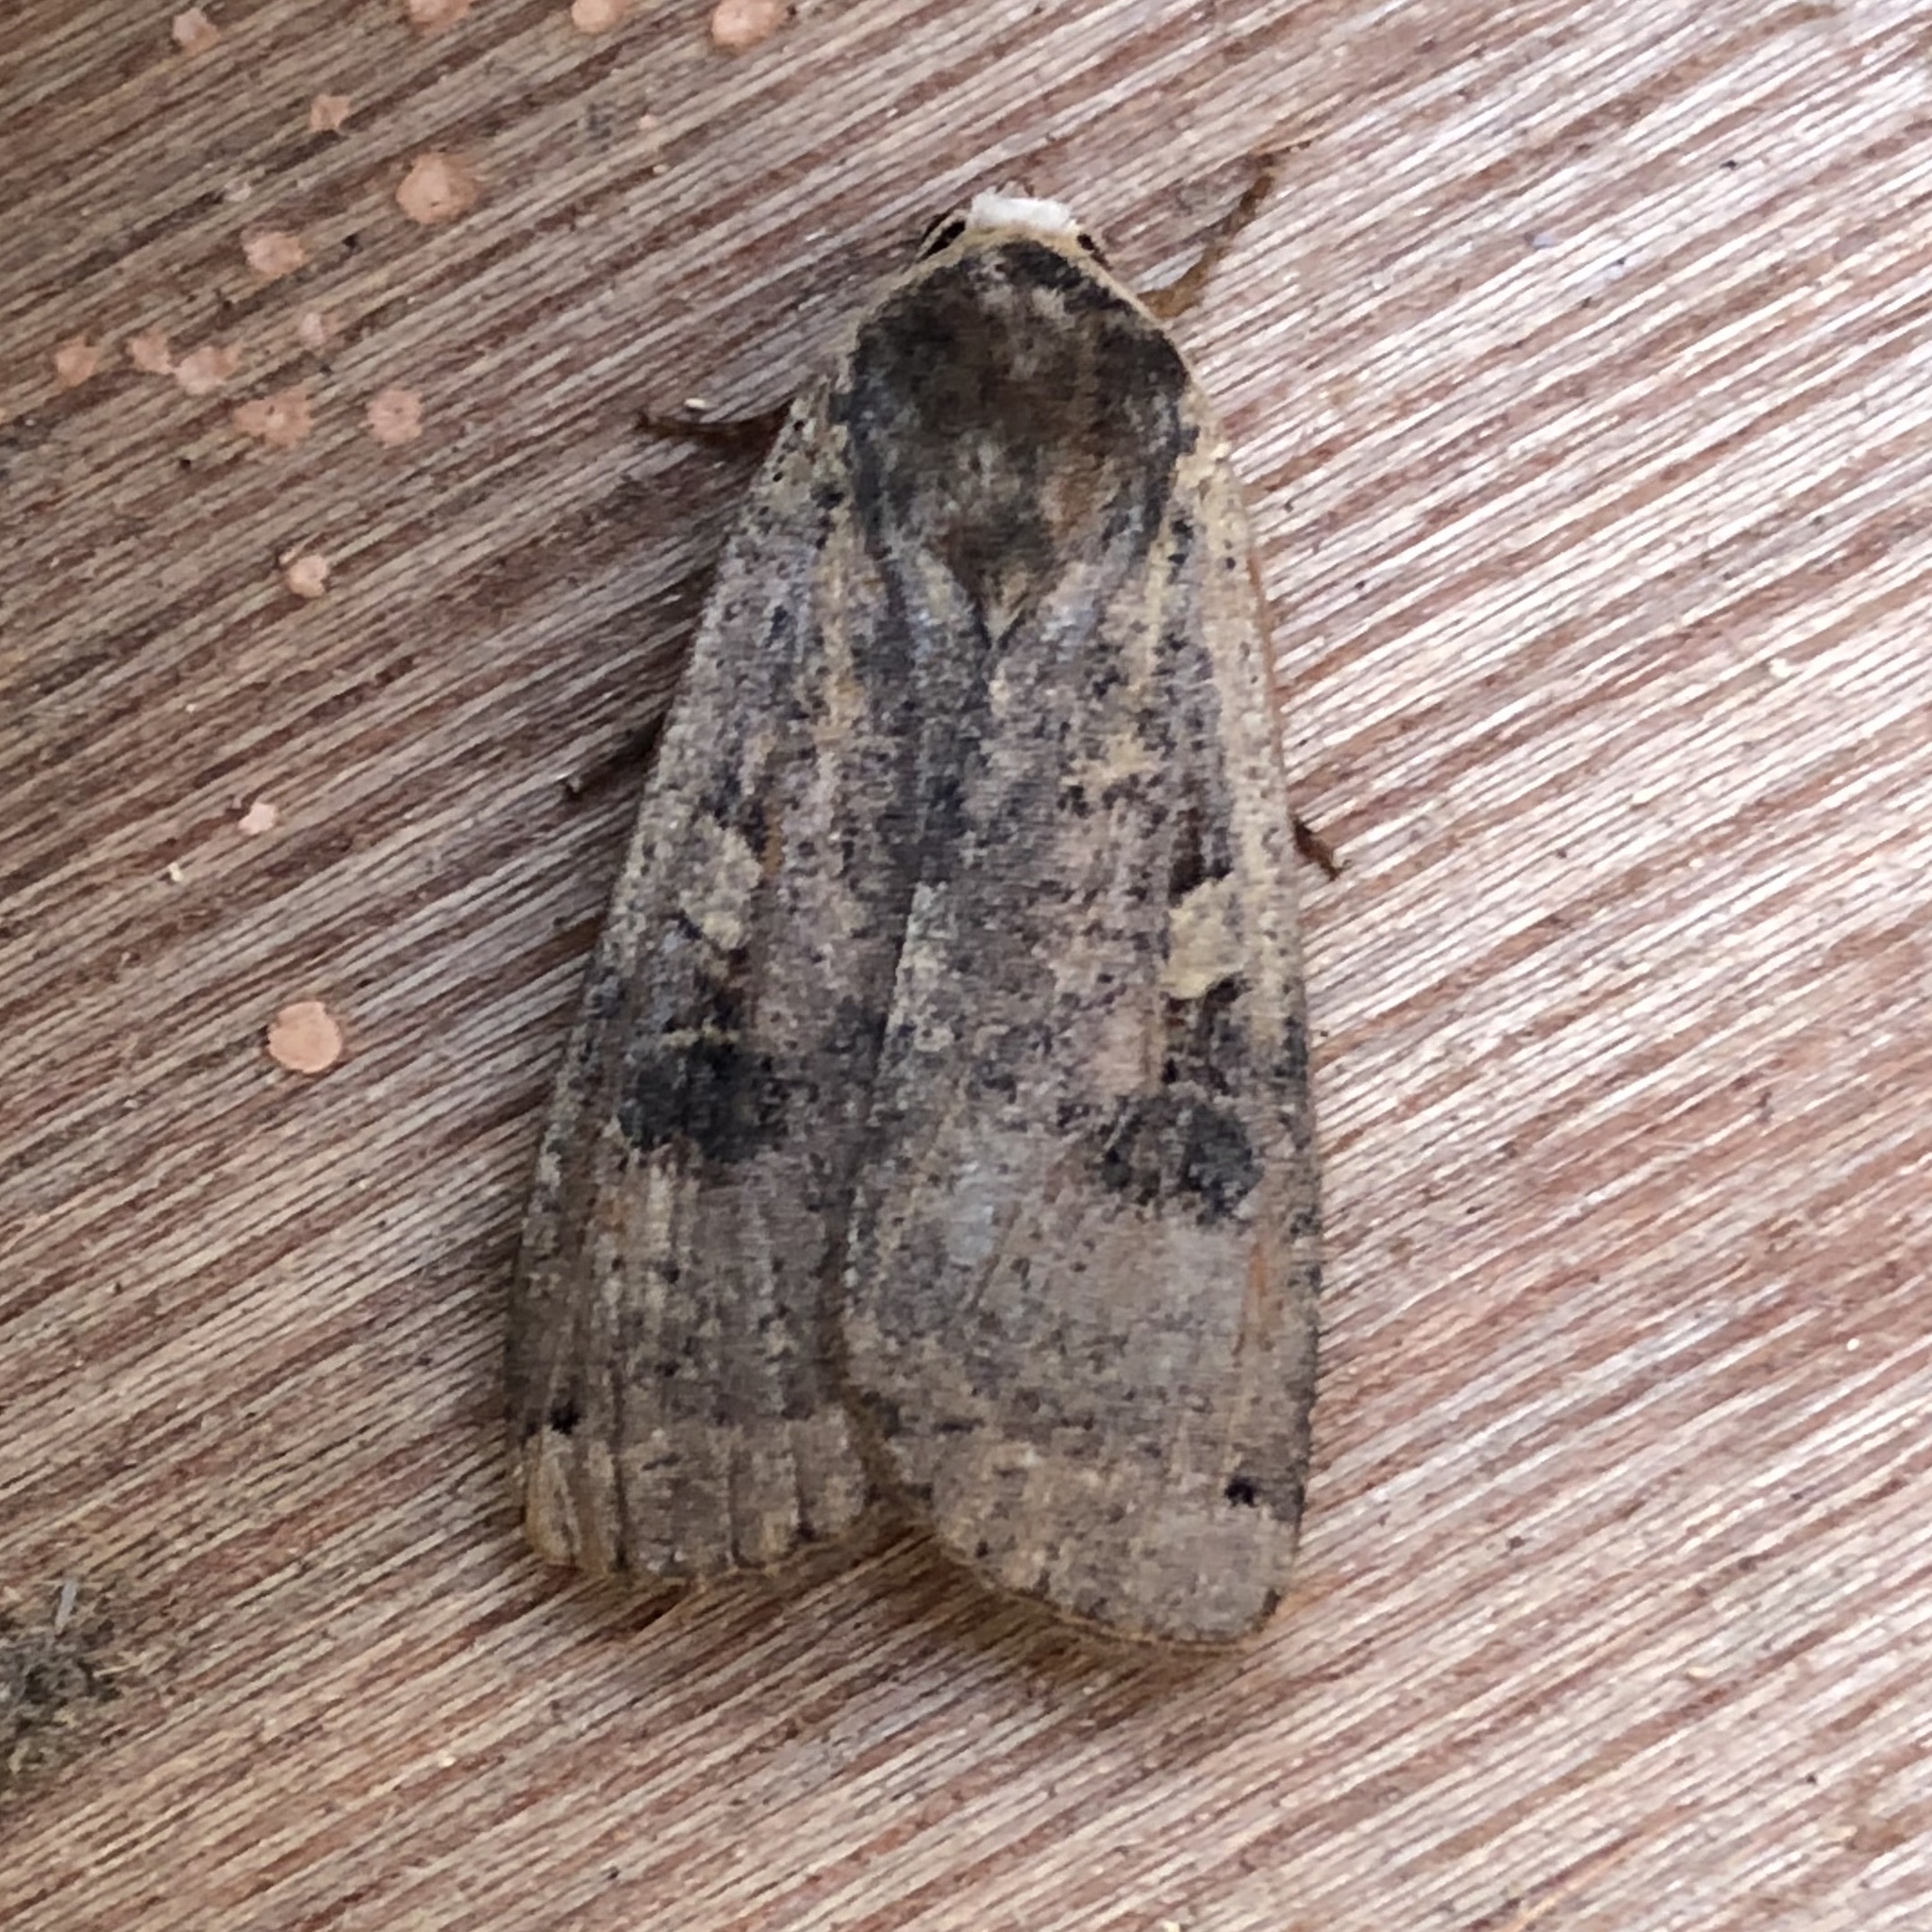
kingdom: Animalia
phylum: Arthropoda
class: Insecta
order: Lepidoptera
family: Noctuidae
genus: Noctua
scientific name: Noctua pronuba
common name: Large yellow underwing
